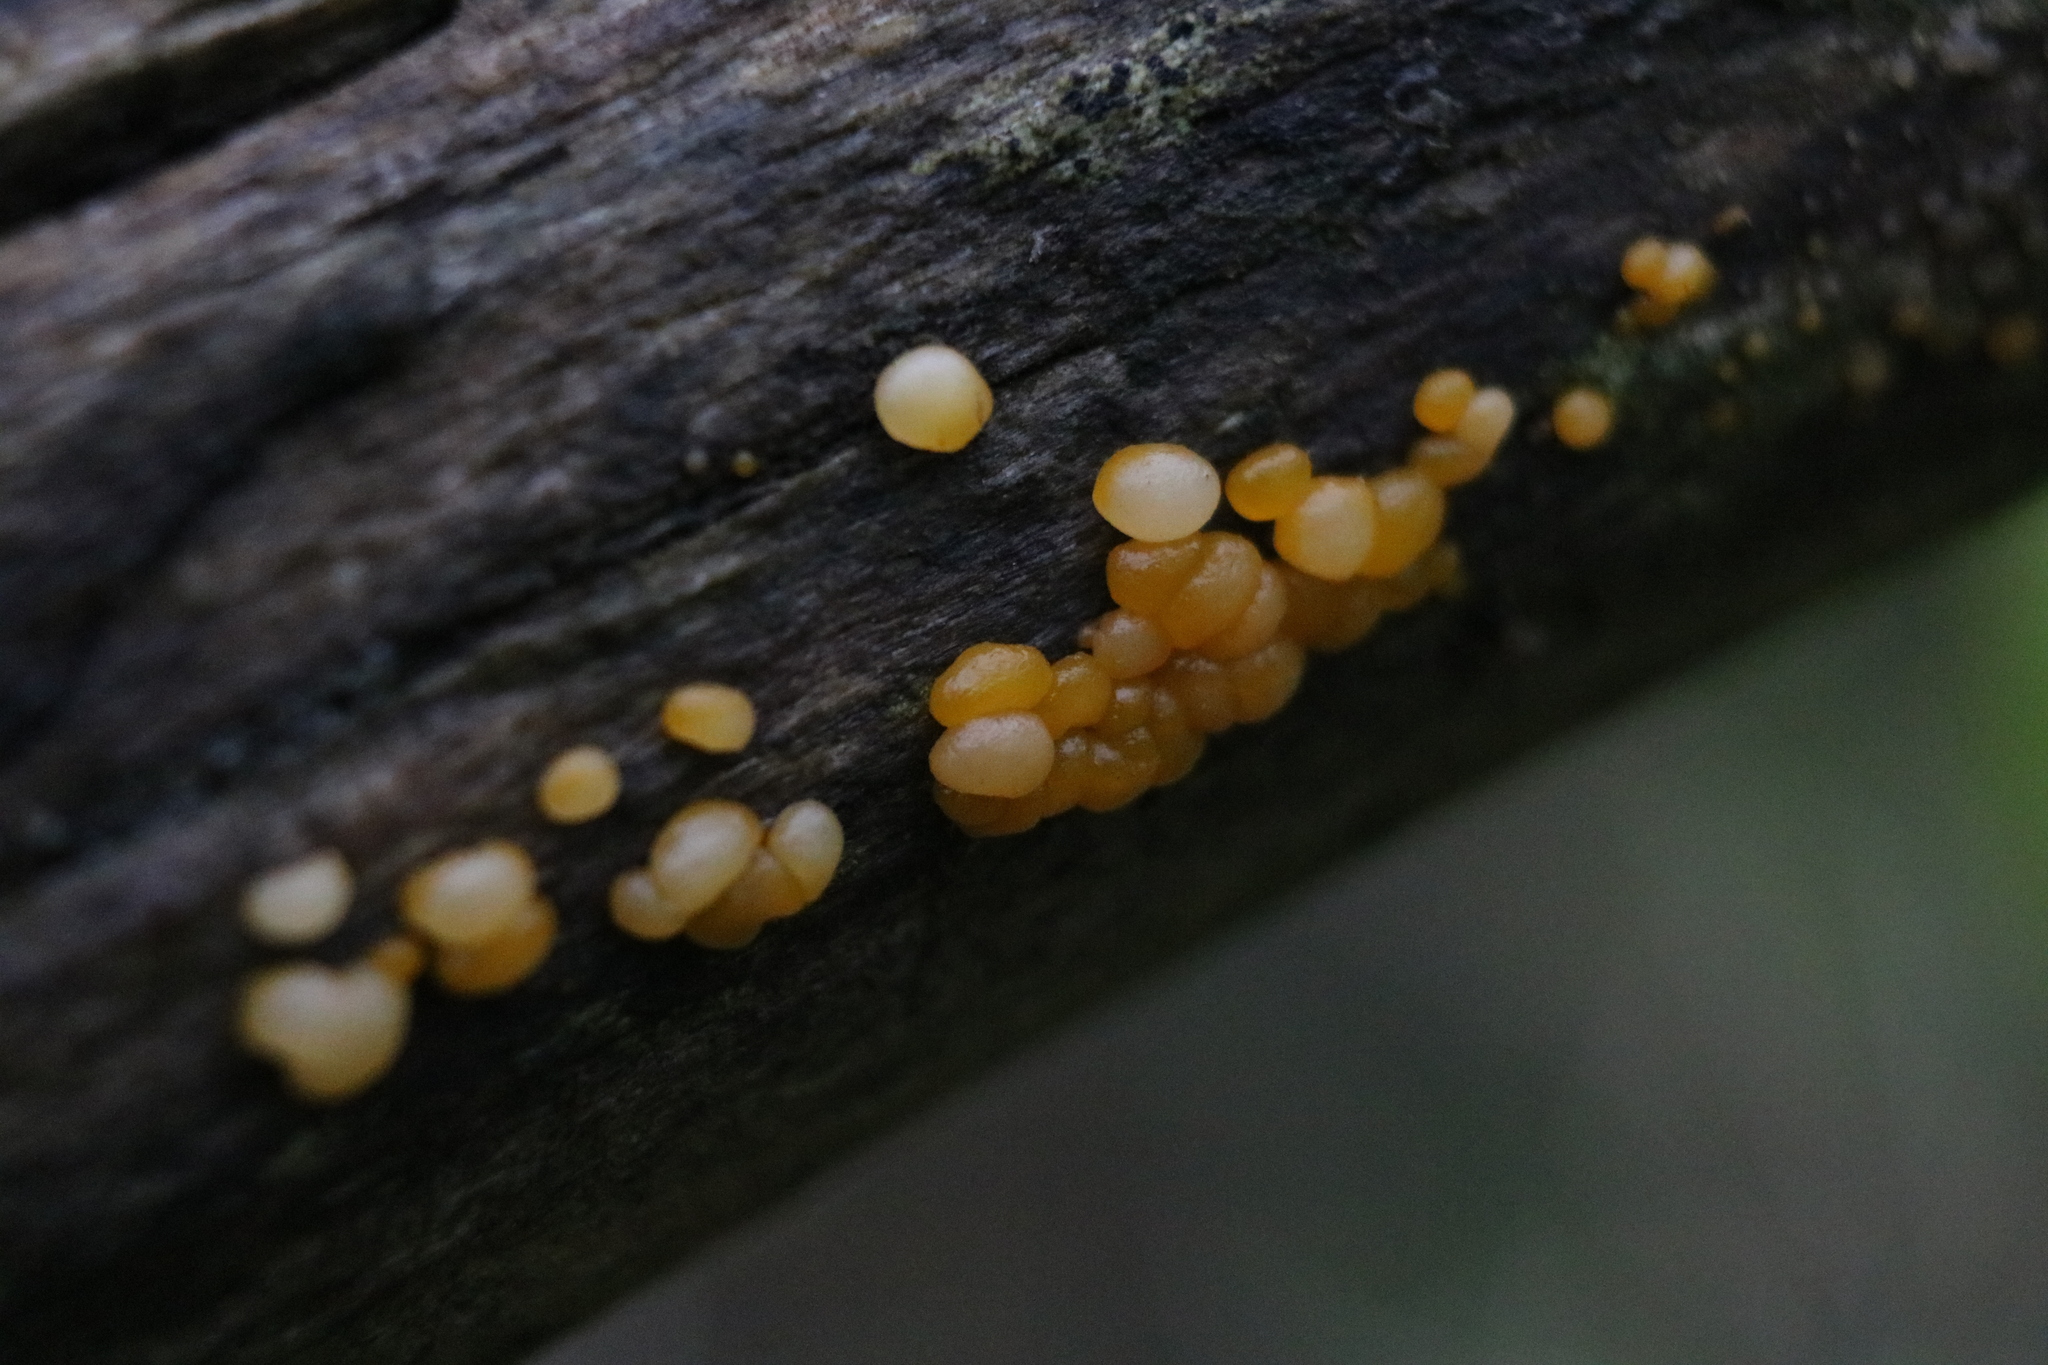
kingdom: Fungi
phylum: Basidiomycota
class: Dacrymycetes
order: Dacrymycetales
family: Dacrymycetaceae
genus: Dacrymyces
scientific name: Dacrymyces stillatus
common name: Common jelly spot
